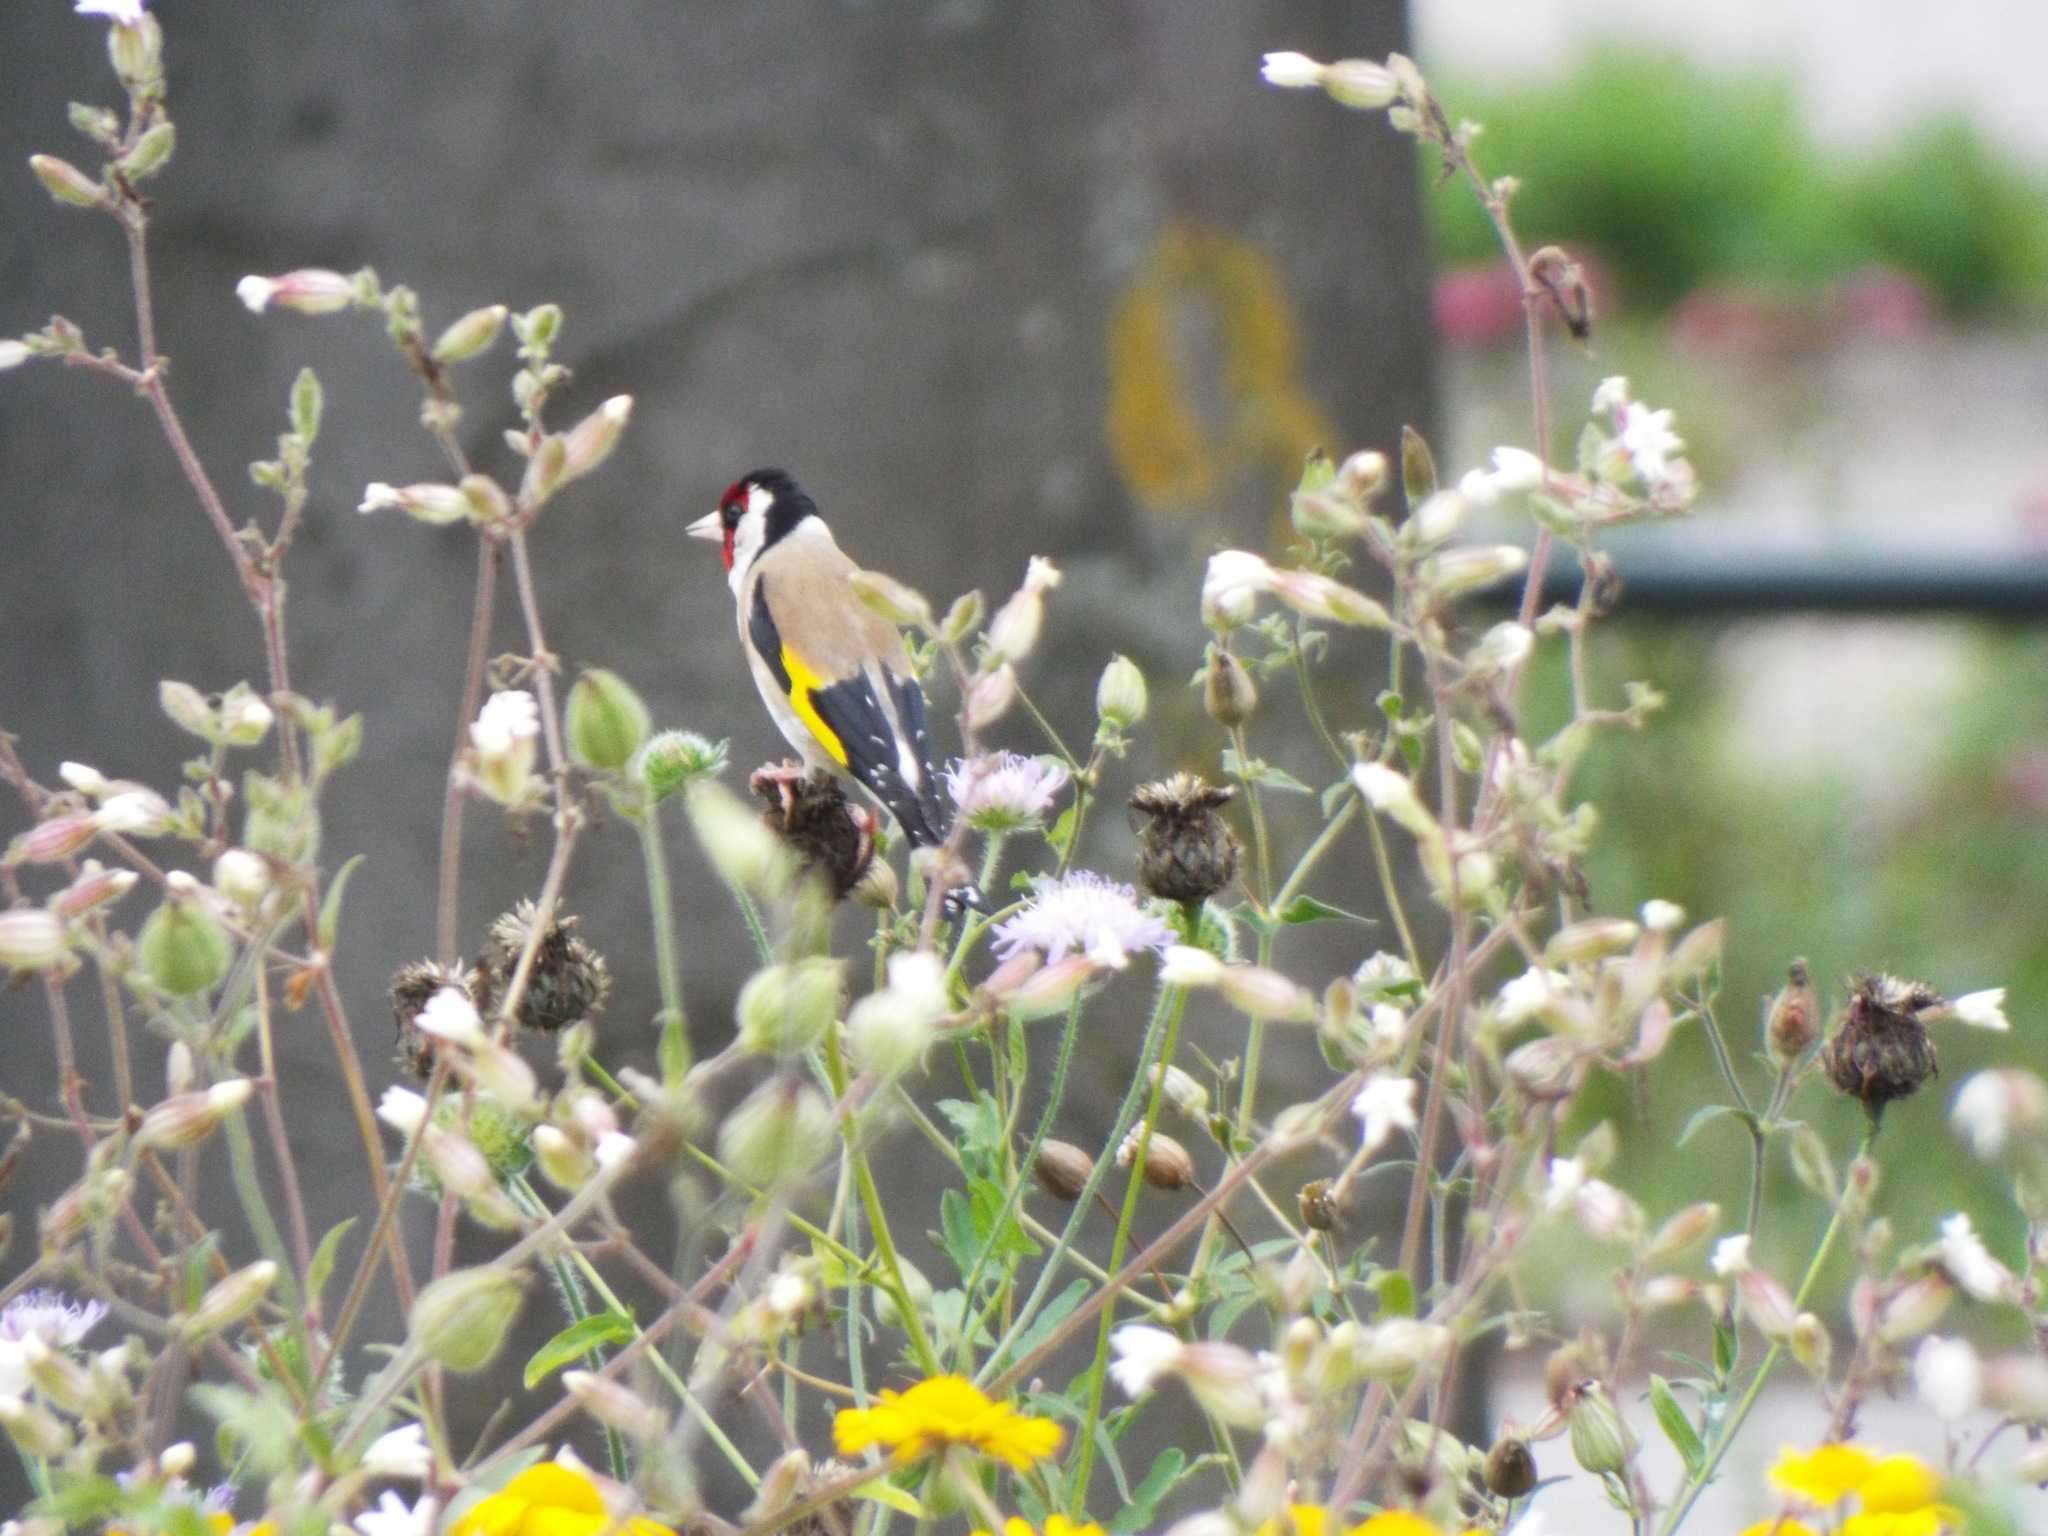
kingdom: Animalia
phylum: Chordata
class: Aves
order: Passeriformes
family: Fringillidae
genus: Carduelis
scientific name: Carduelis carduelis
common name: European goldfinch
